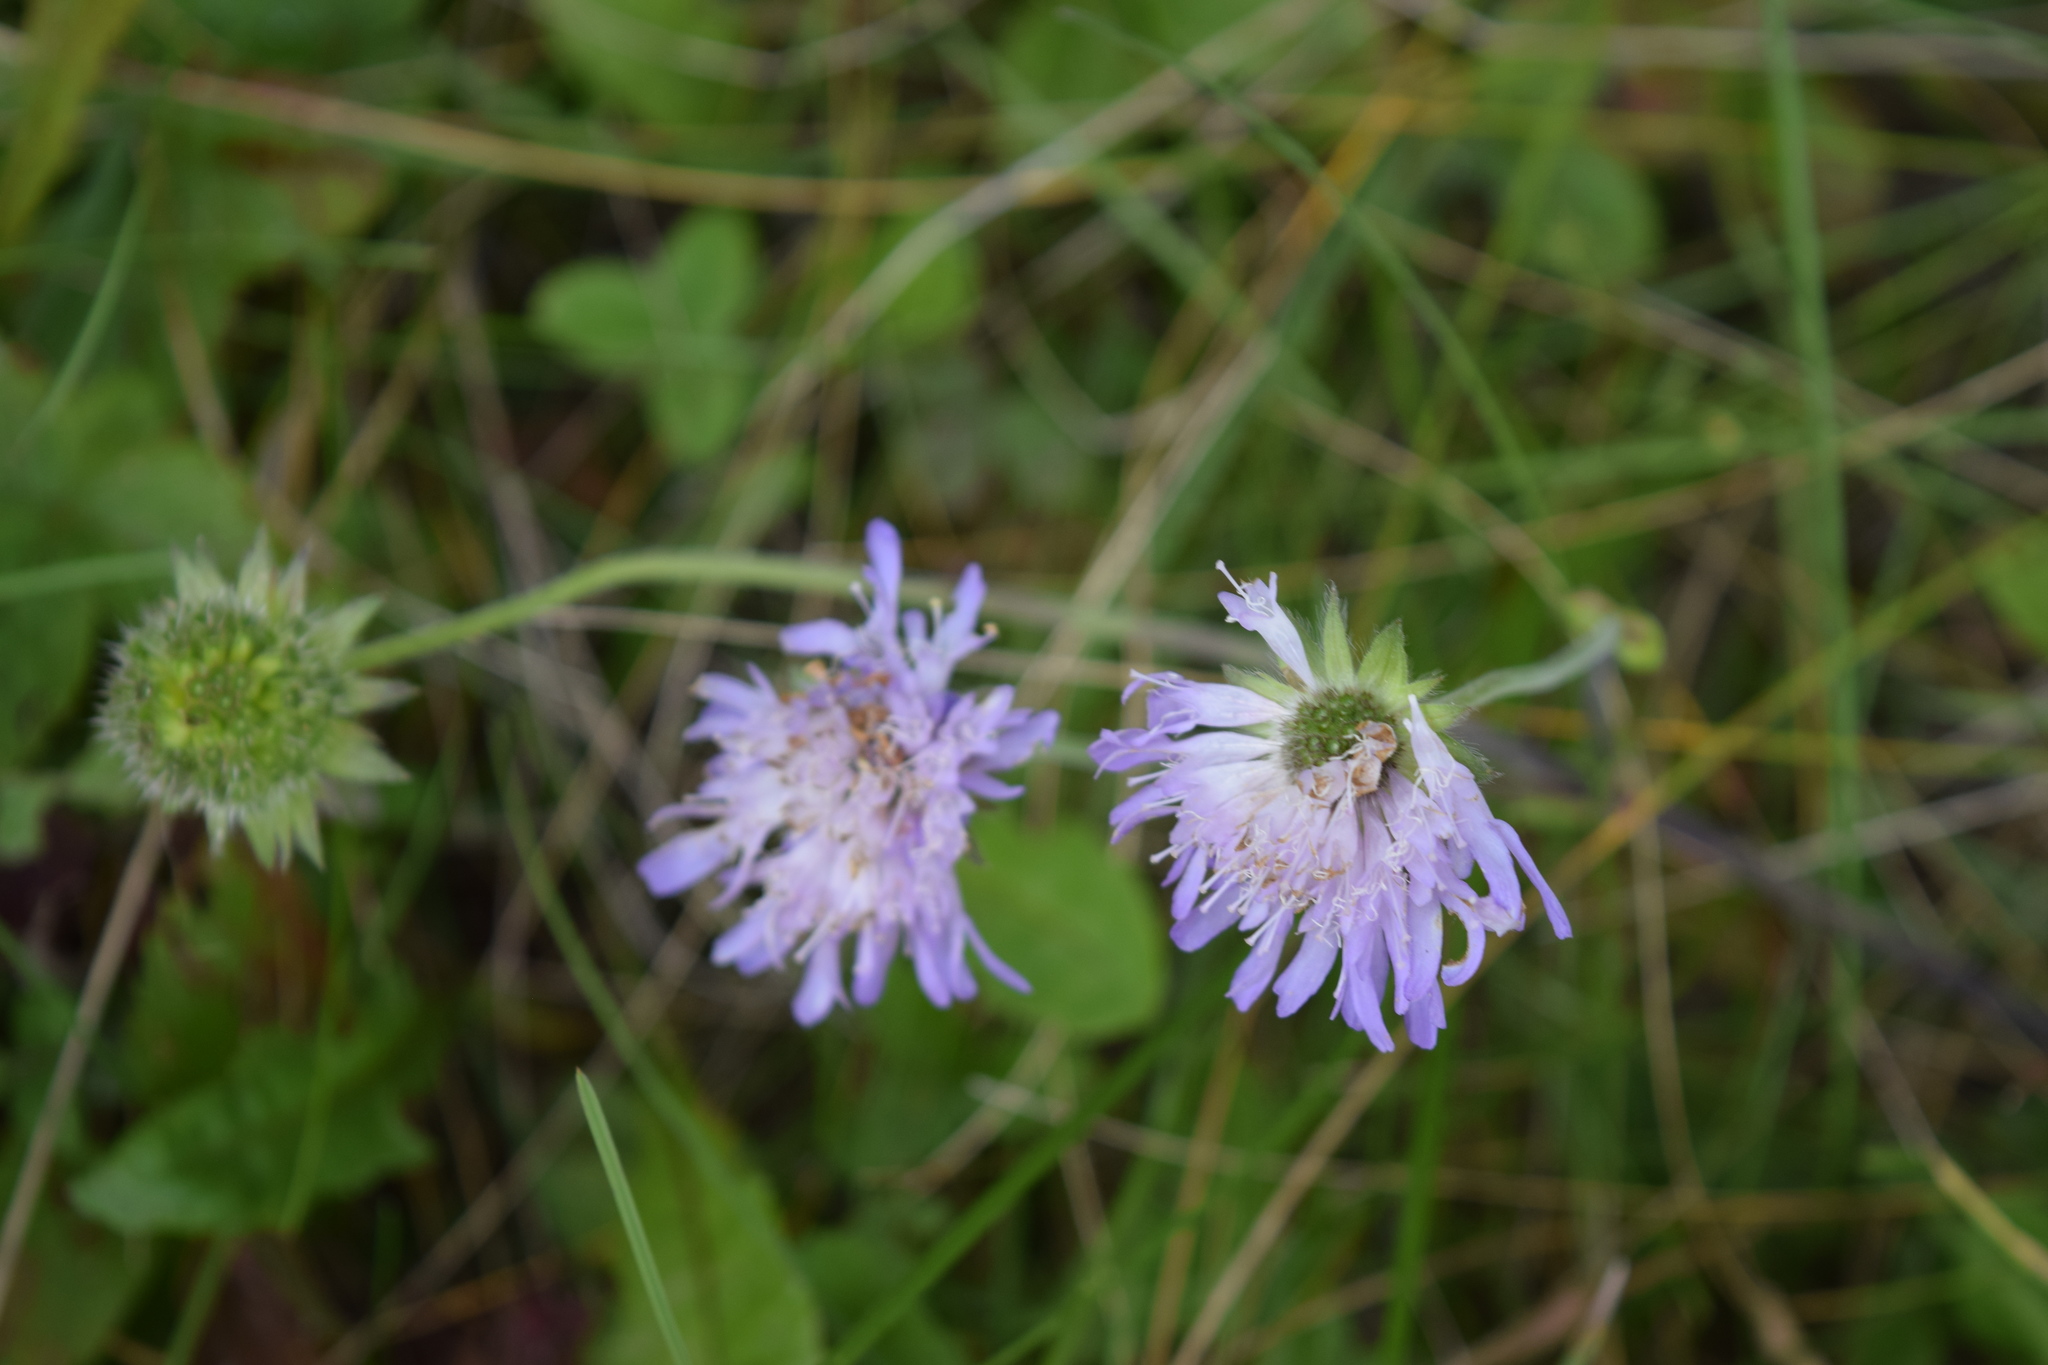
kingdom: Plantae
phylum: Tracheophyta
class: Magnoliopsida
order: Dipsacales
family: Caprifoliaceae
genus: Knautia
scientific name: Knautia arvensis
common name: Field scabiosa
